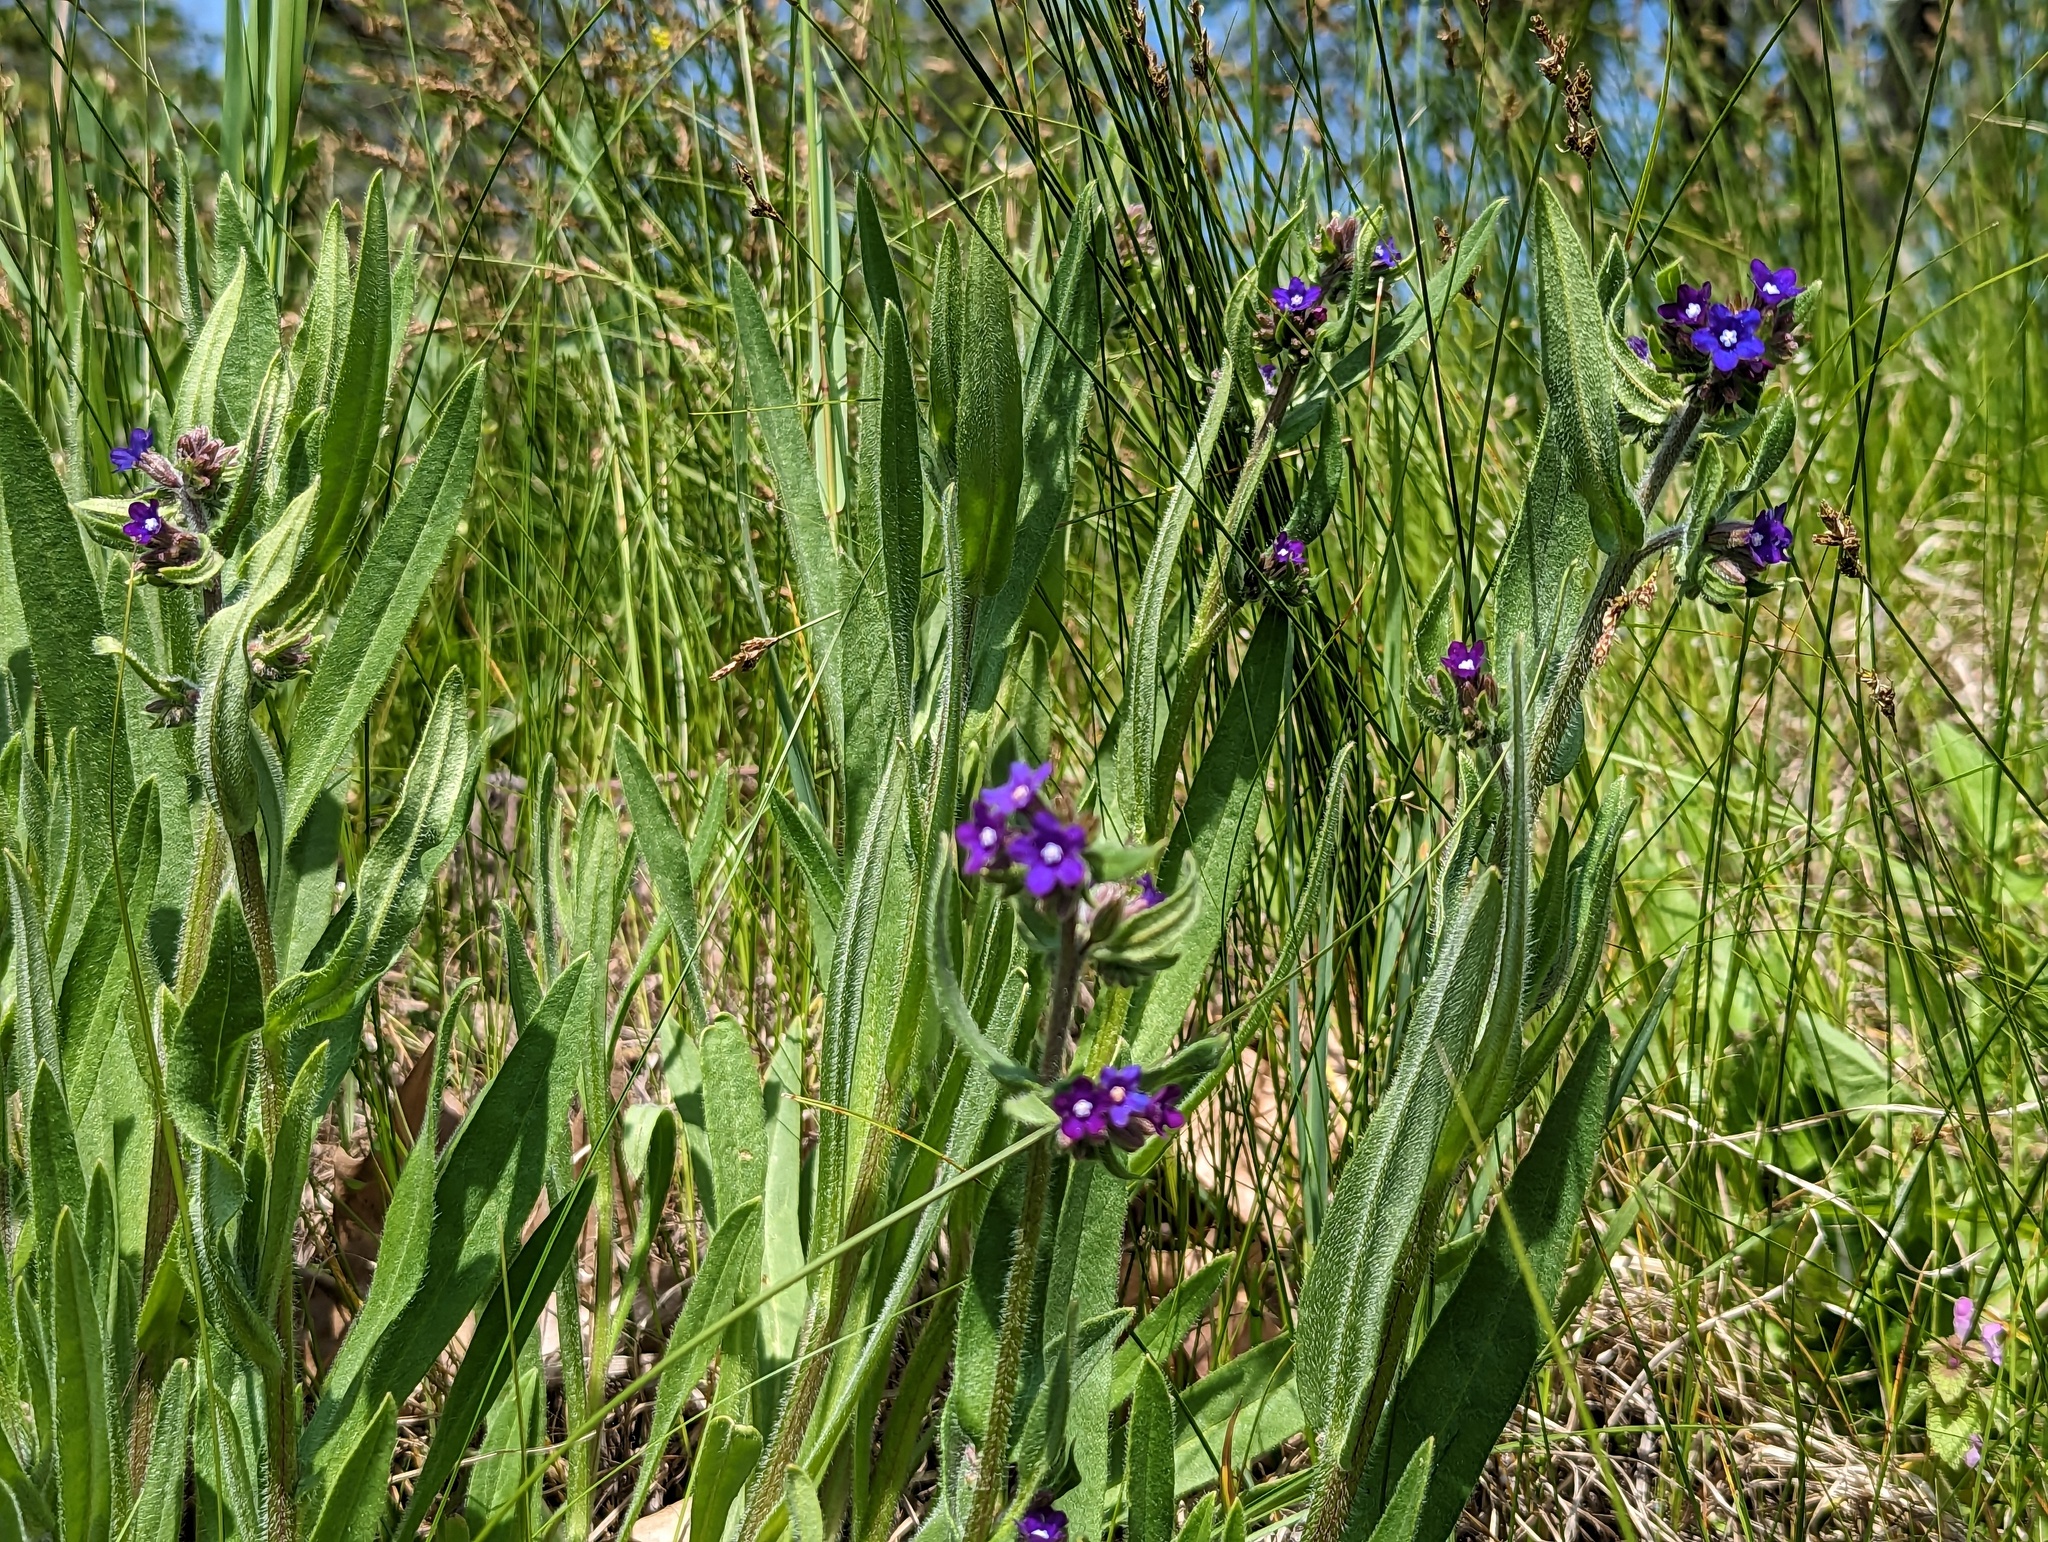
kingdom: Plantae
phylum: Tracheophyta
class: Magnoliopsida
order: Boraginales
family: Boraginaceae
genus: Anchusa
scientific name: Anchusa officinalis
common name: Alkanet
